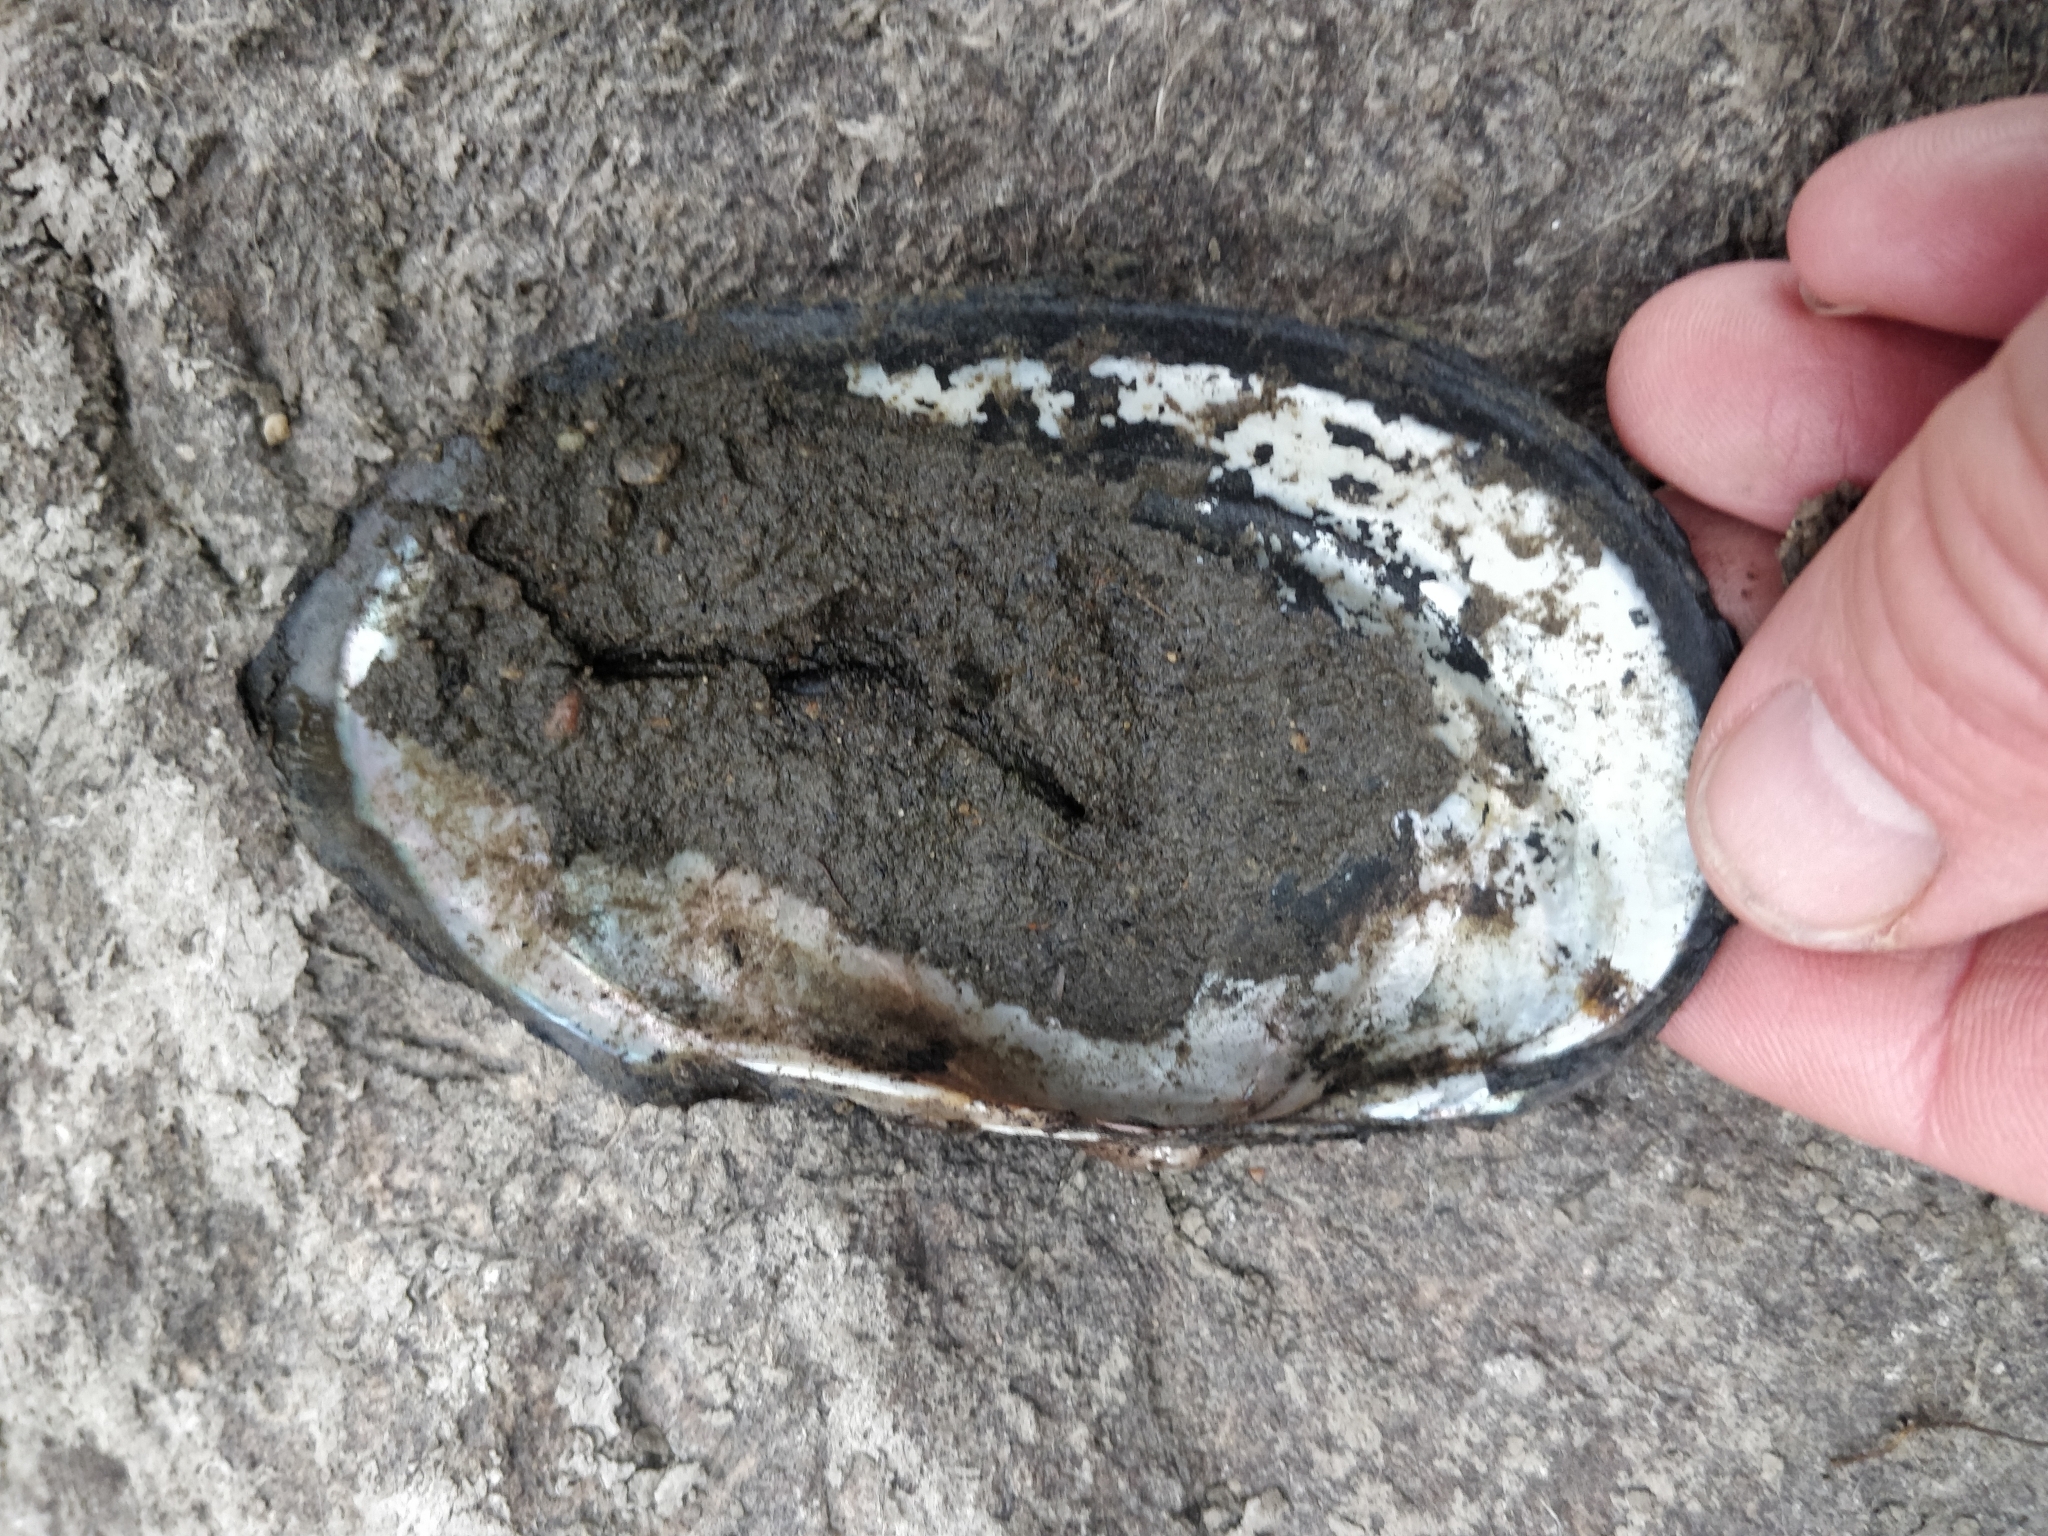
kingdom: Animalia
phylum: Mollusca
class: Bivalvia
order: Unionida
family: Unionidae
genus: Pyganodon
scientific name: Pyganodon grandis
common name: Giant floater
